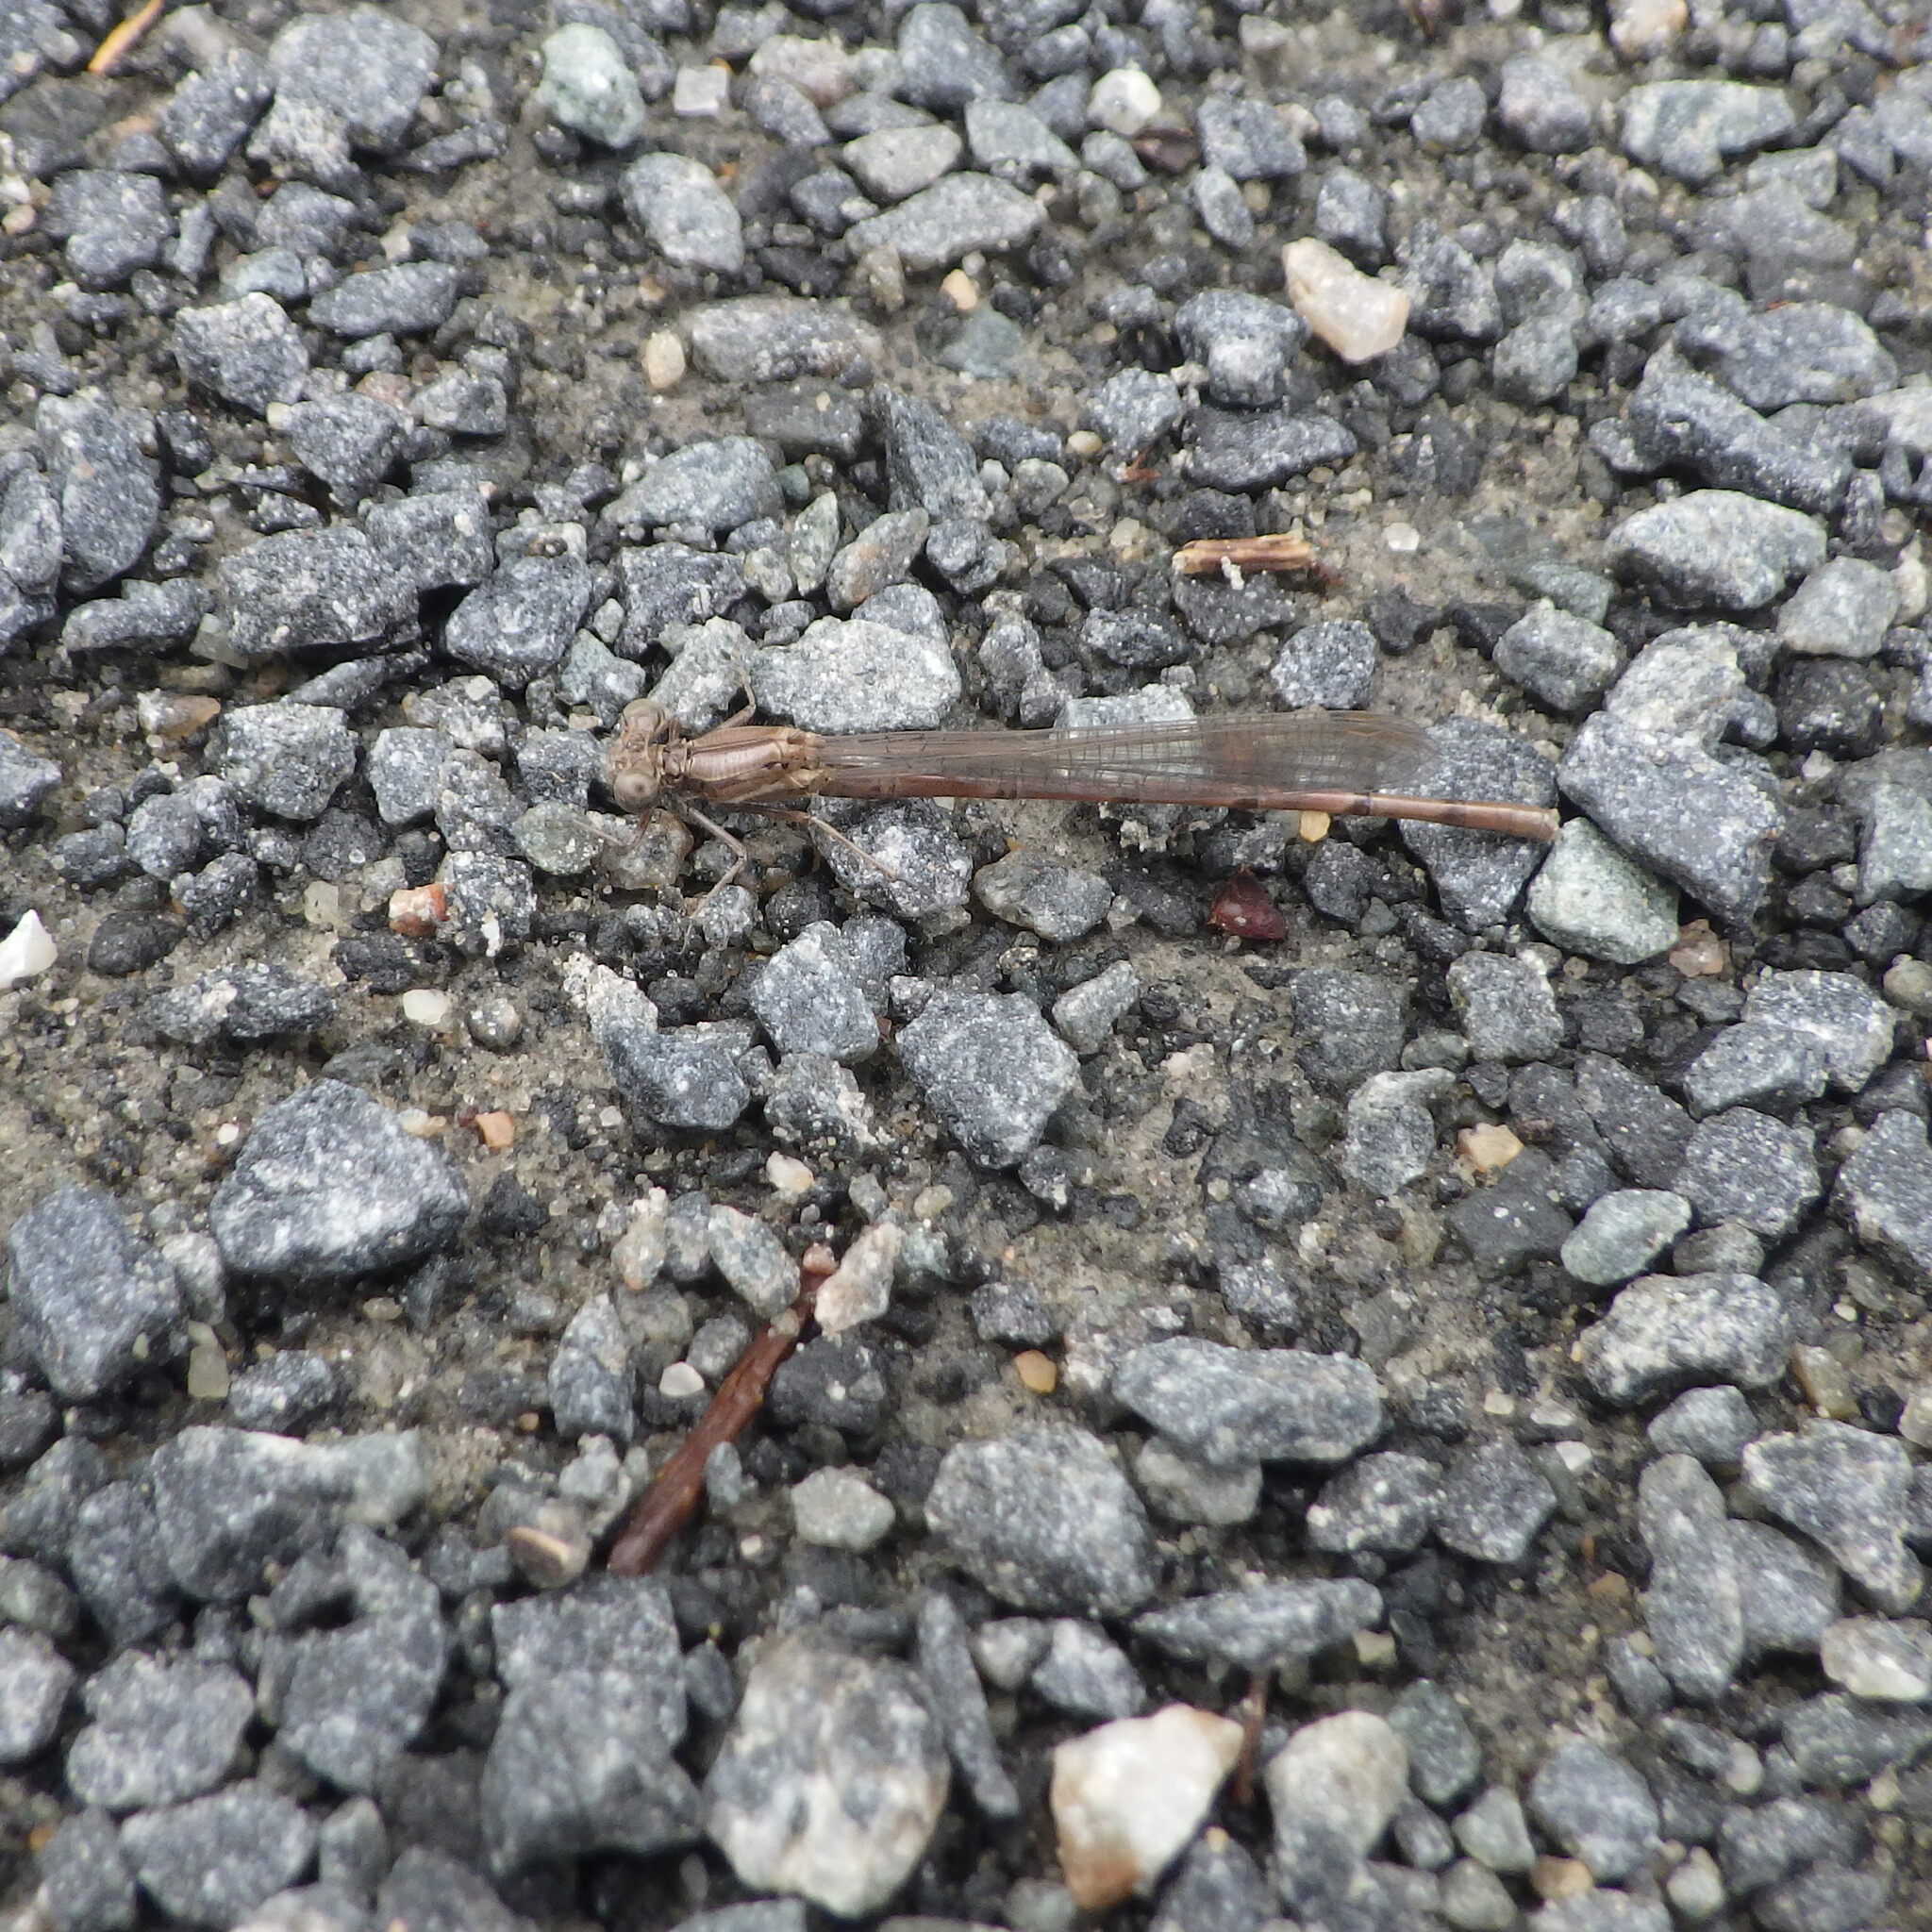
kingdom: Animalia
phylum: Arthropoda
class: Insecta
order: Odonata
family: Coenagrionidae
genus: Argia
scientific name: Argia fumipennis
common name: Variable dancer
